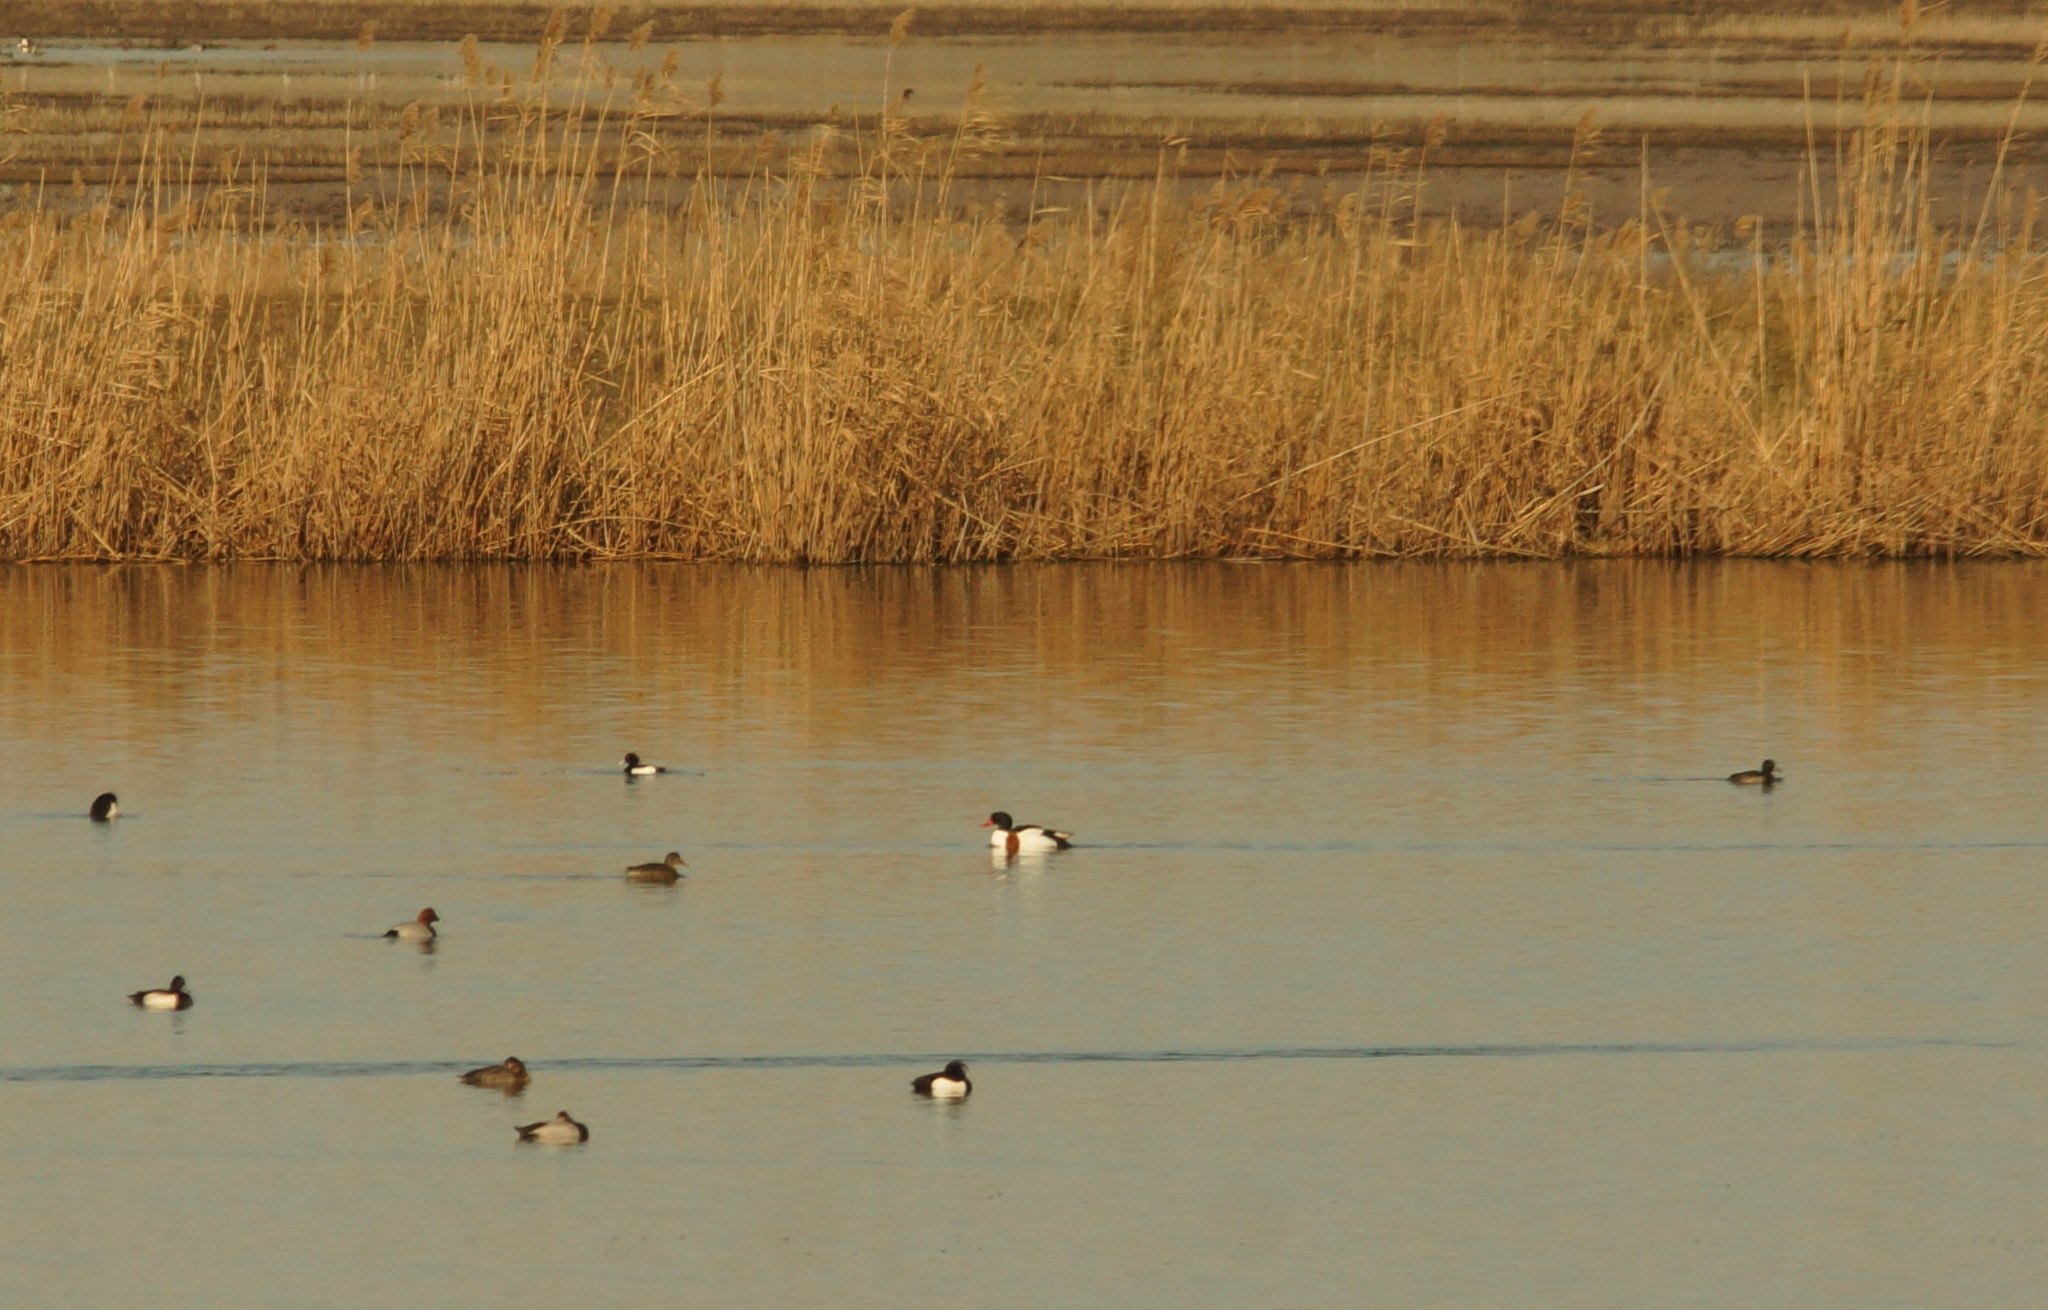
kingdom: Animalia
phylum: Chordata
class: Aves
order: Anseriformes
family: Anatidae
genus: Aythya
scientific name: Aythya ferina
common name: Common pochard
